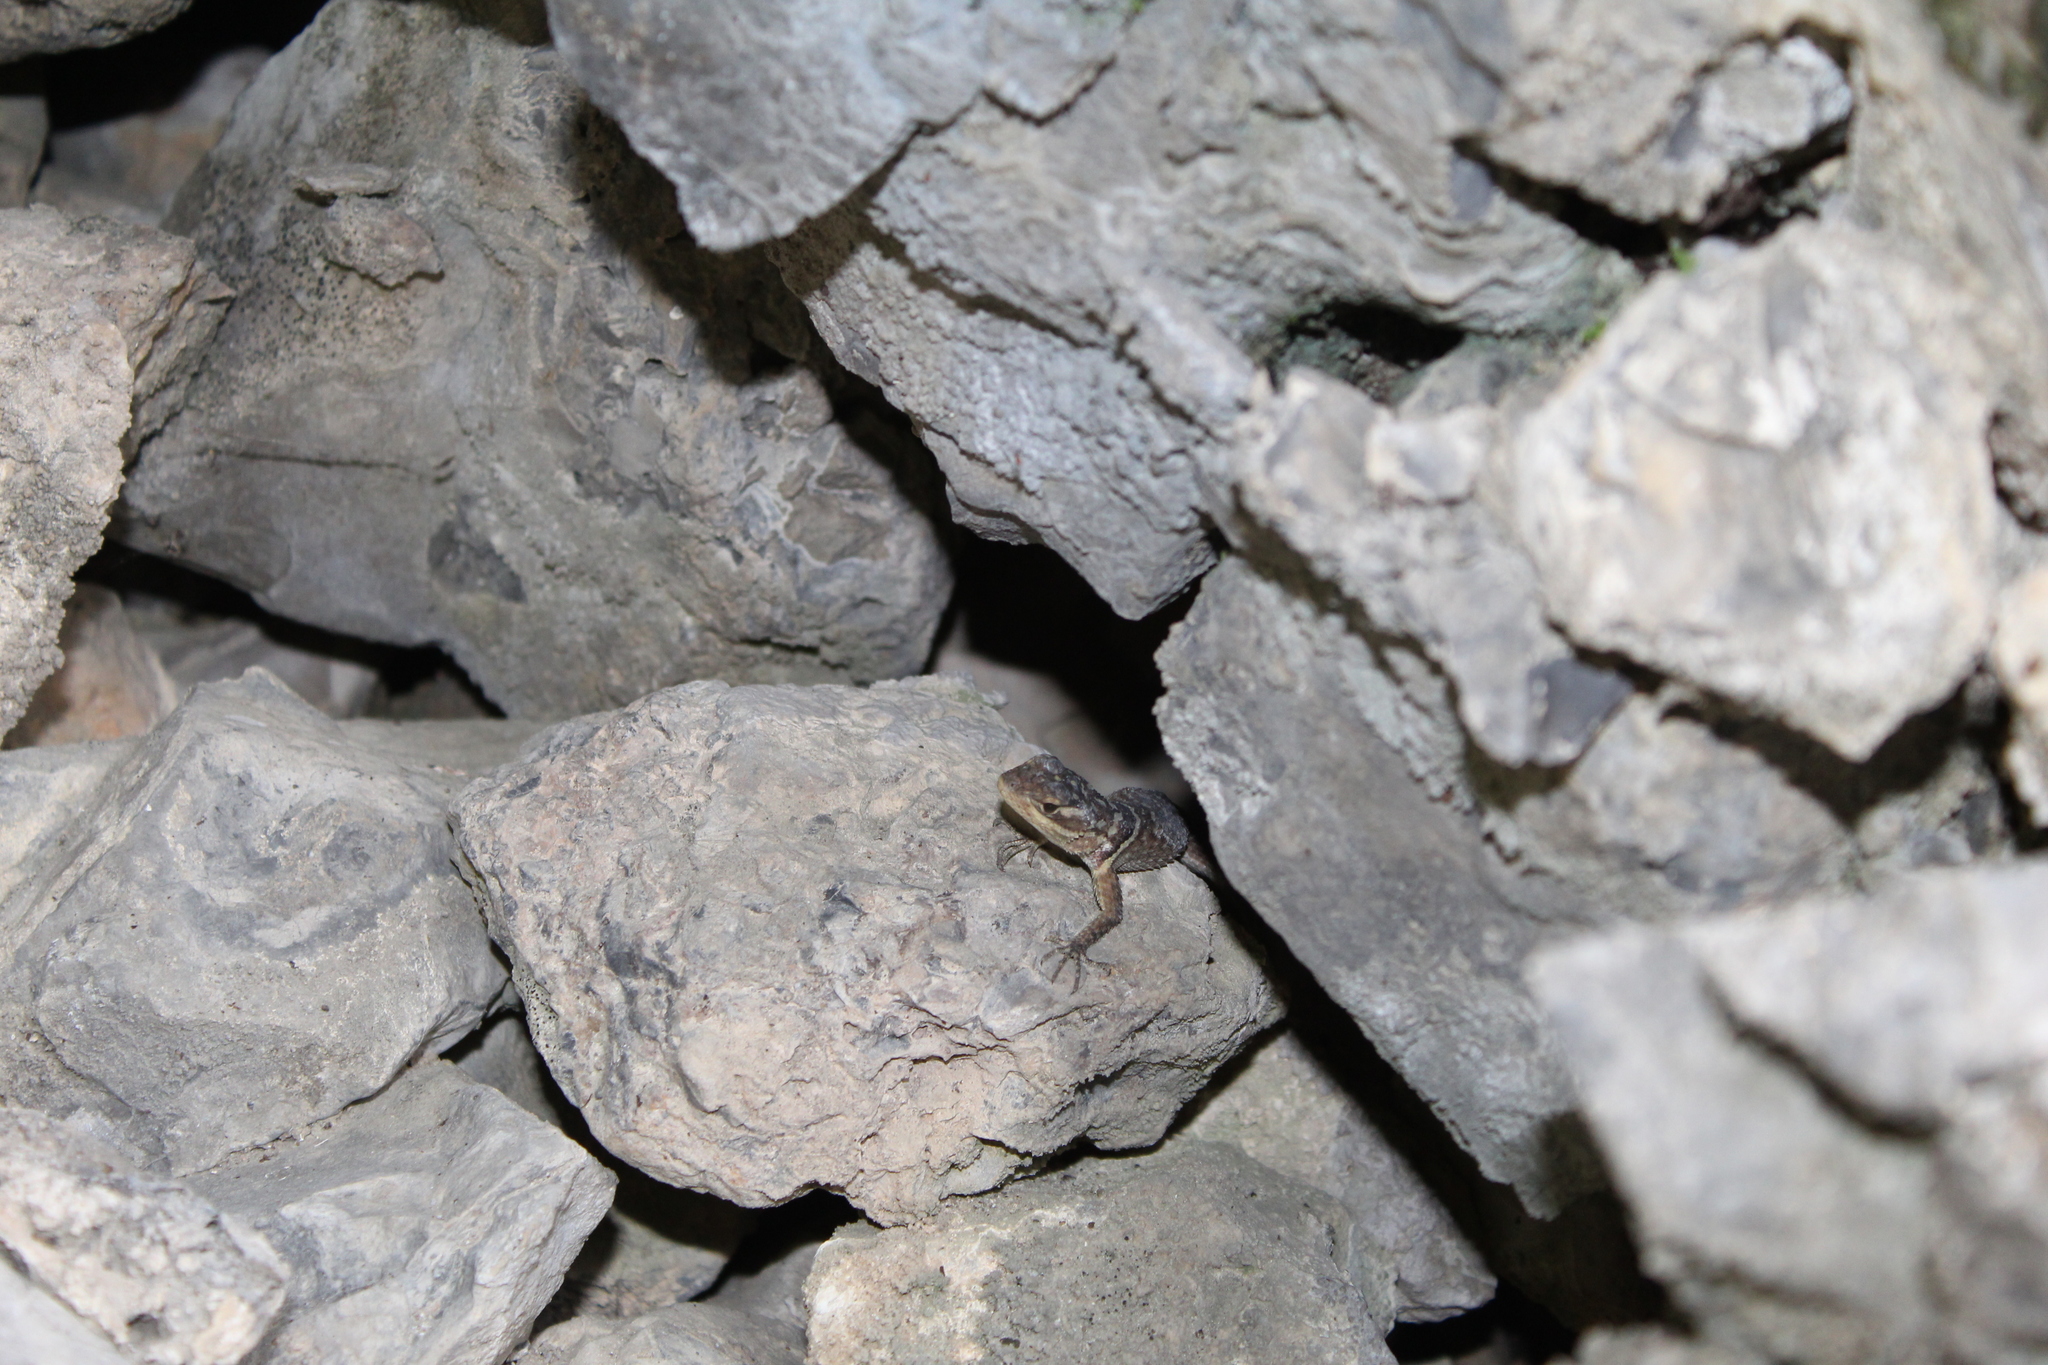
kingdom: Animalia
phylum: Chordata
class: Squamata
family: Phrynosomatidae
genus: Sceloporus
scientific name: Sceloporus cyanogenys
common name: Blue spiny lizard
